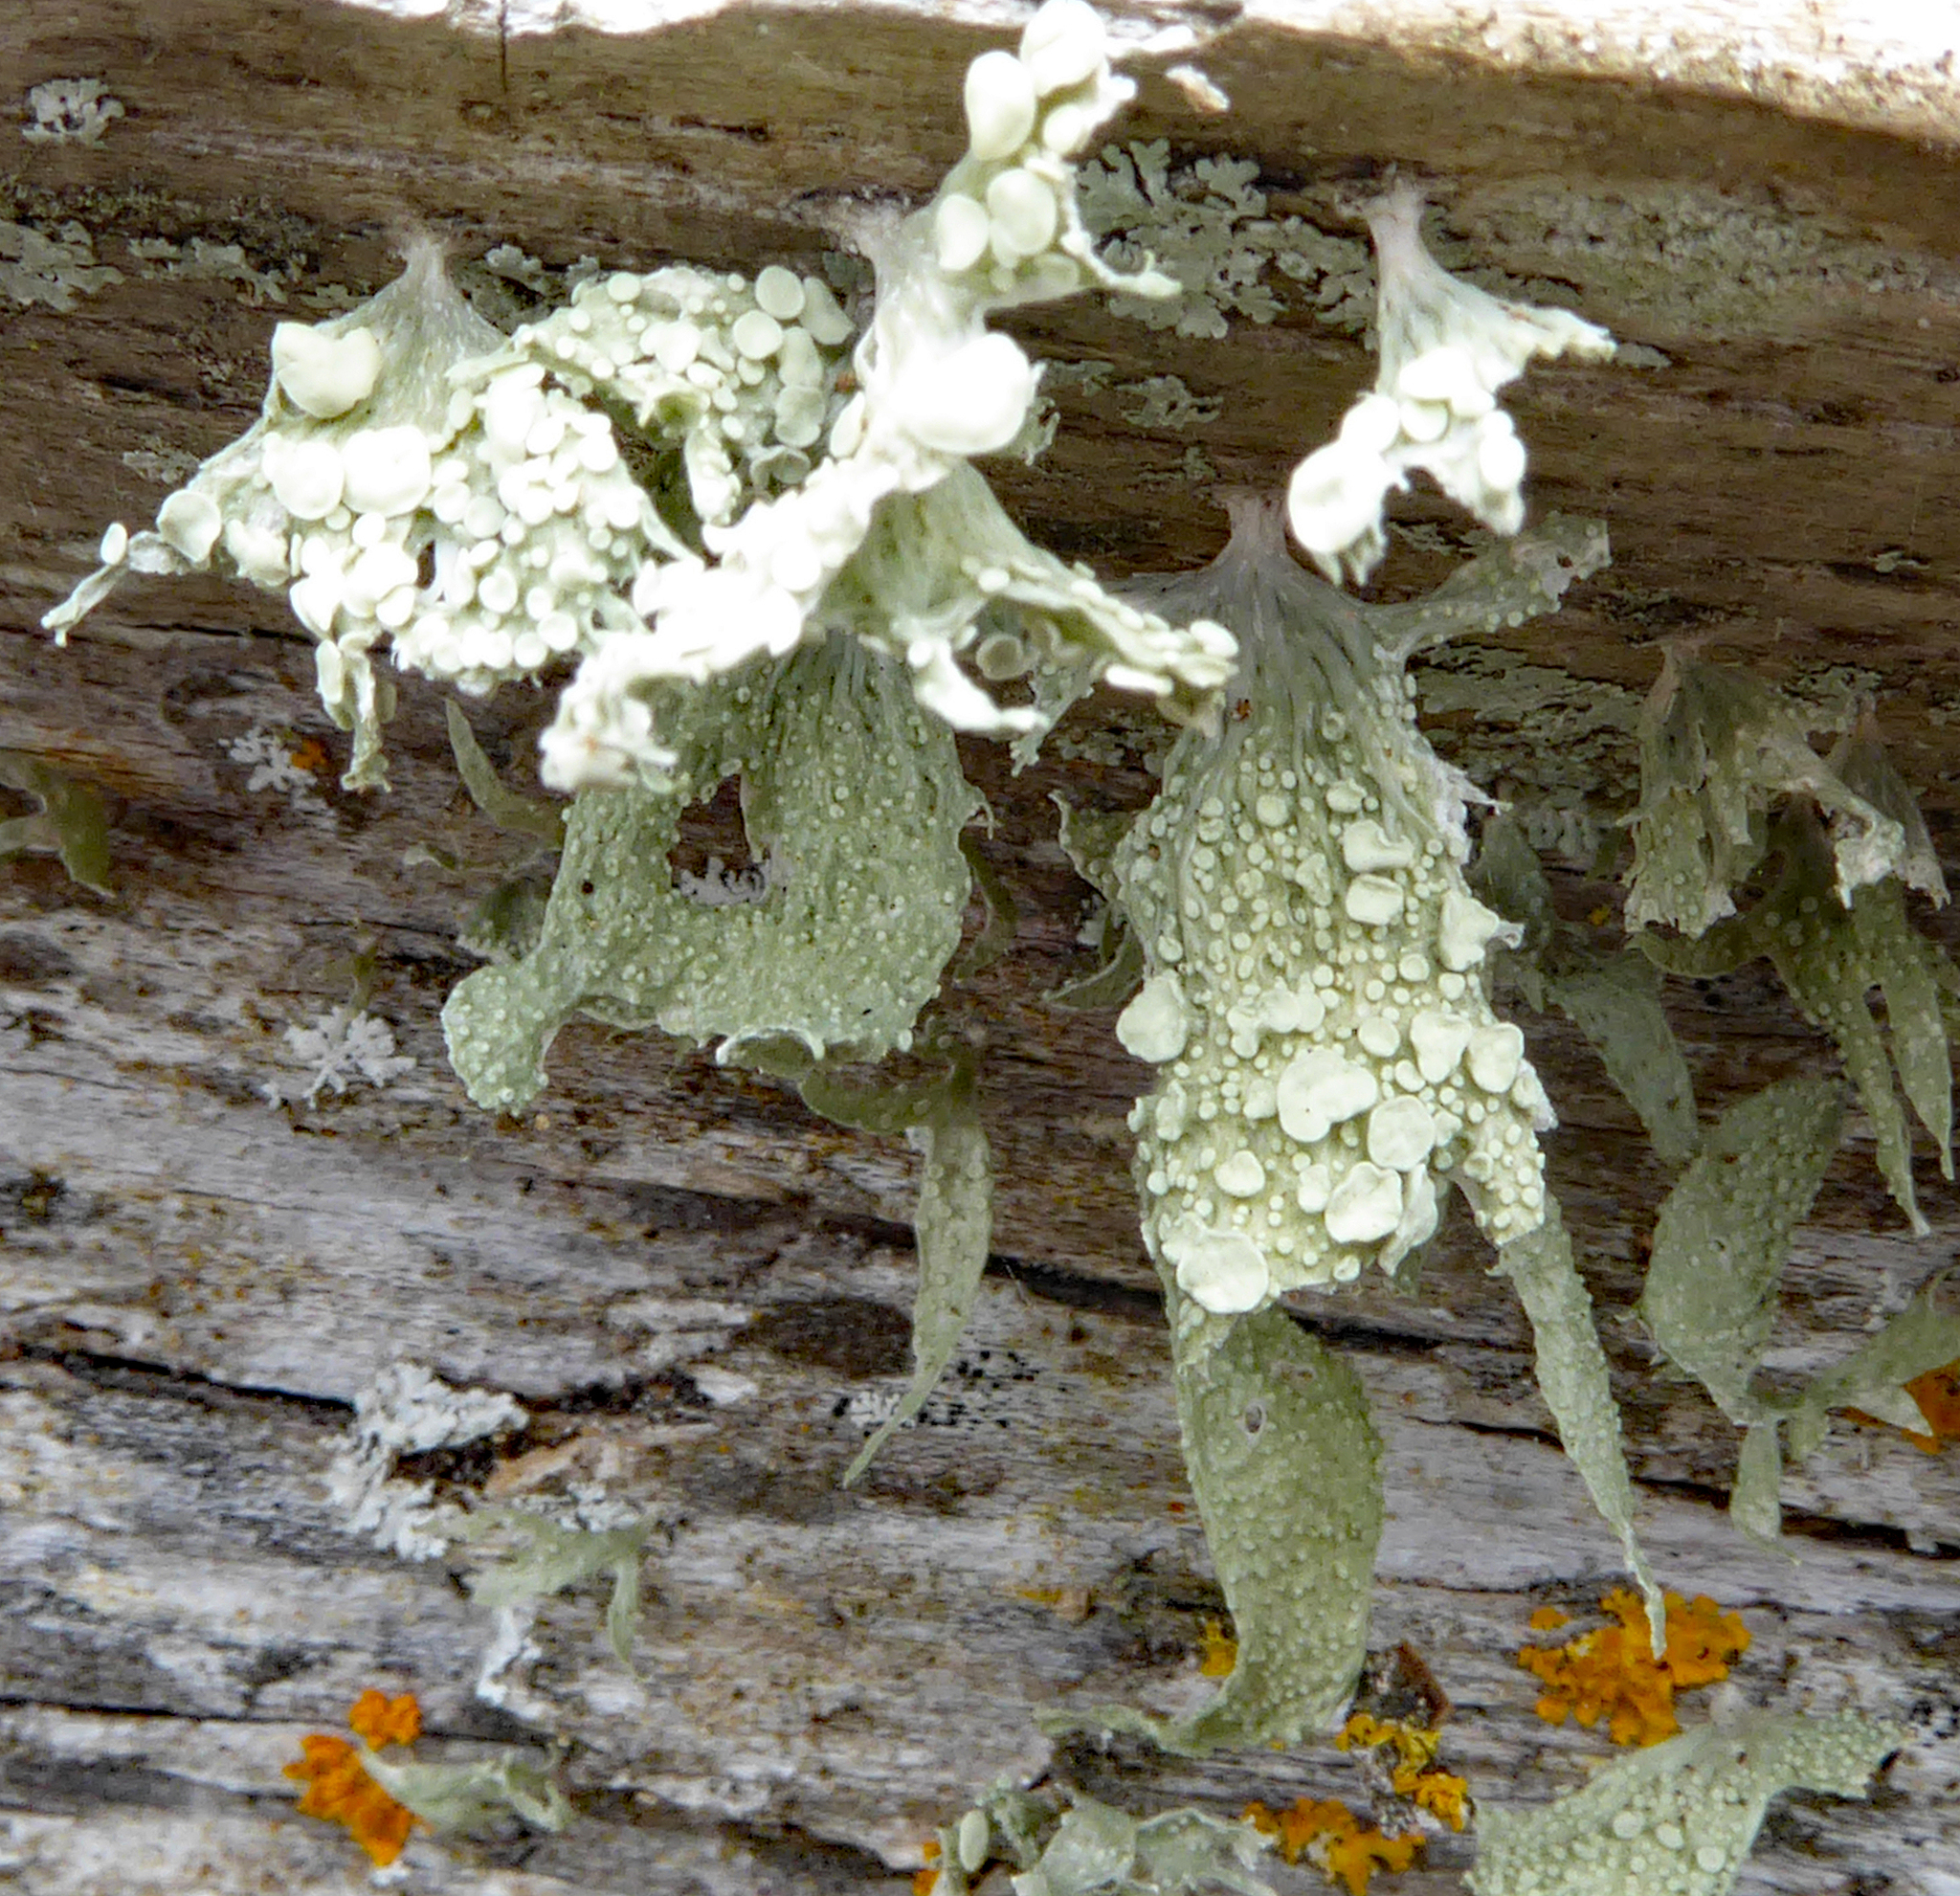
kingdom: Fungi
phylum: Ascomycota
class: Lecanoromycetes
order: Lecanorales
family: Ramalinaceae
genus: Ramalina
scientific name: Ramalina celastri
